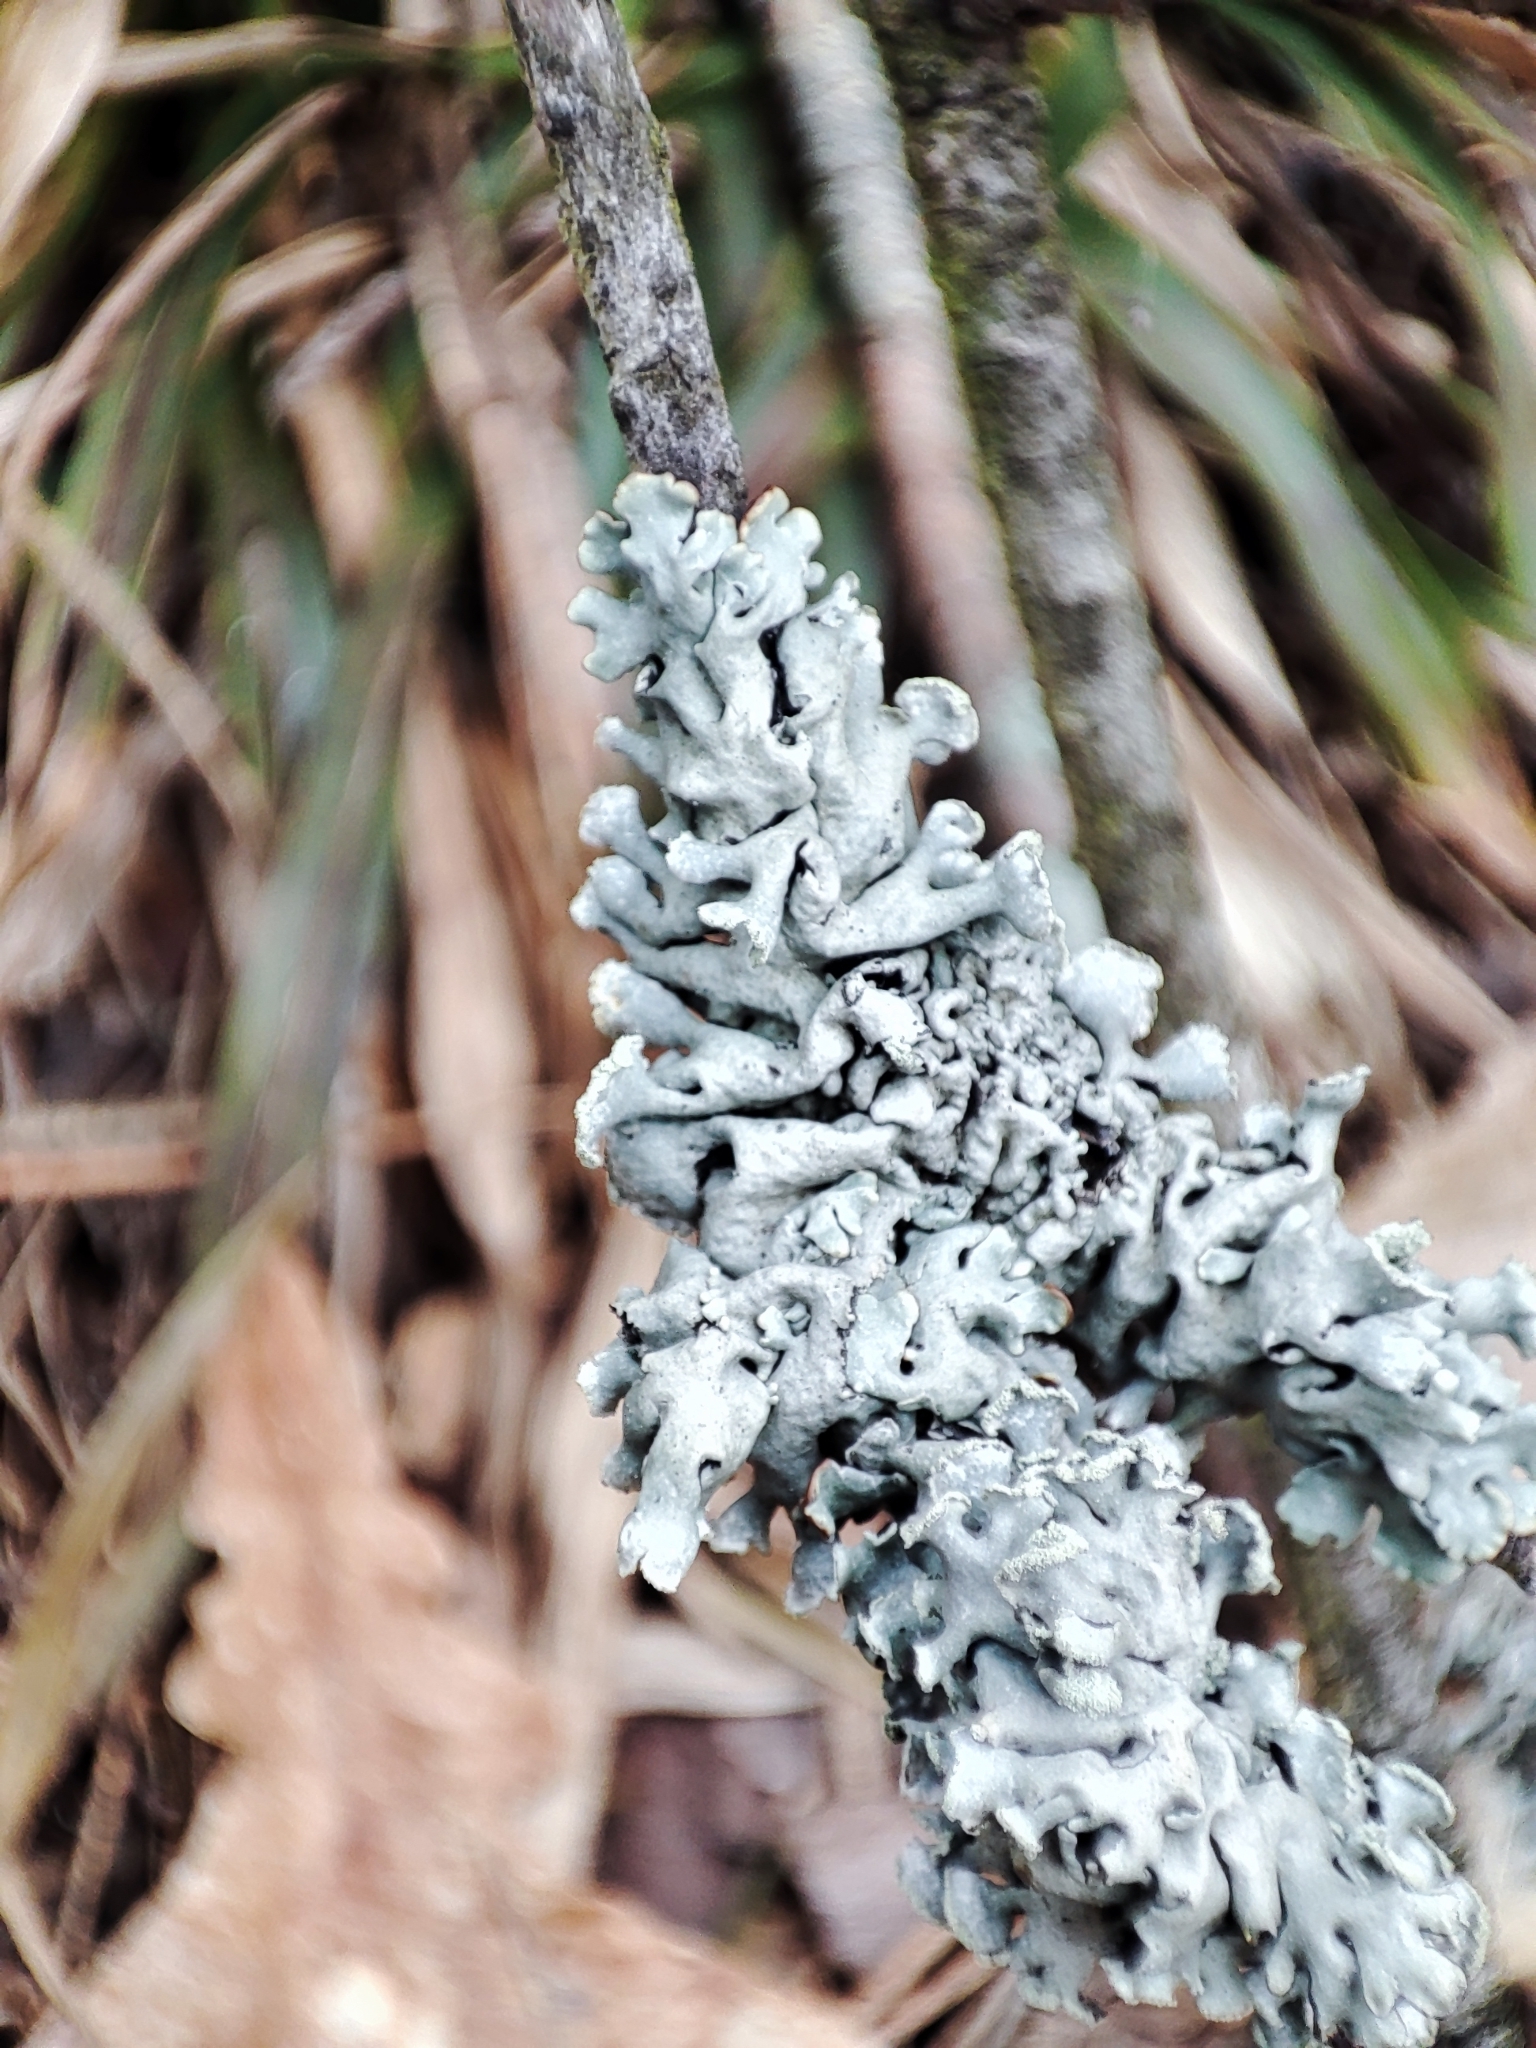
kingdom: Fungi
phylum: Ascomycota
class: Lecanoromycetes
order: Lecanorales
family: Parmeliaceae
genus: Hypogymnia
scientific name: Hypogymnia physodes
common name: Dark crottle
